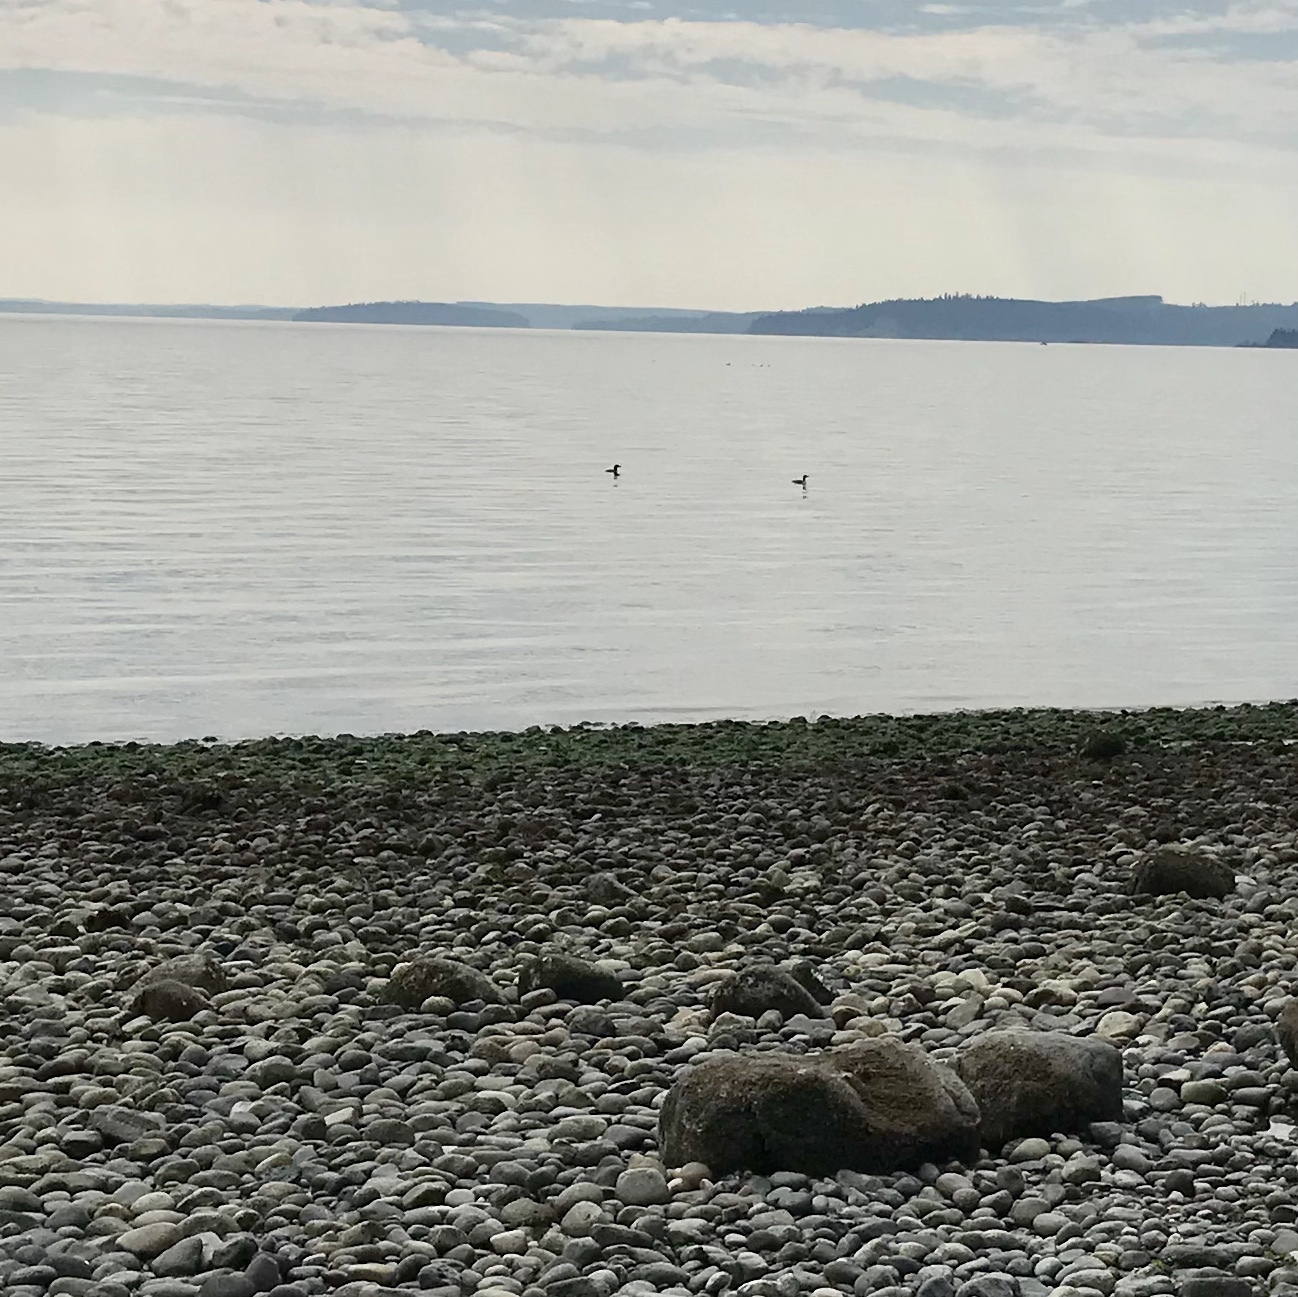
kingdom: Animalia
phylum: Chordata
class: Aves
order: Gaviiformes
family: Gaviidae
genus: Gavia
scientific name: Gavia
